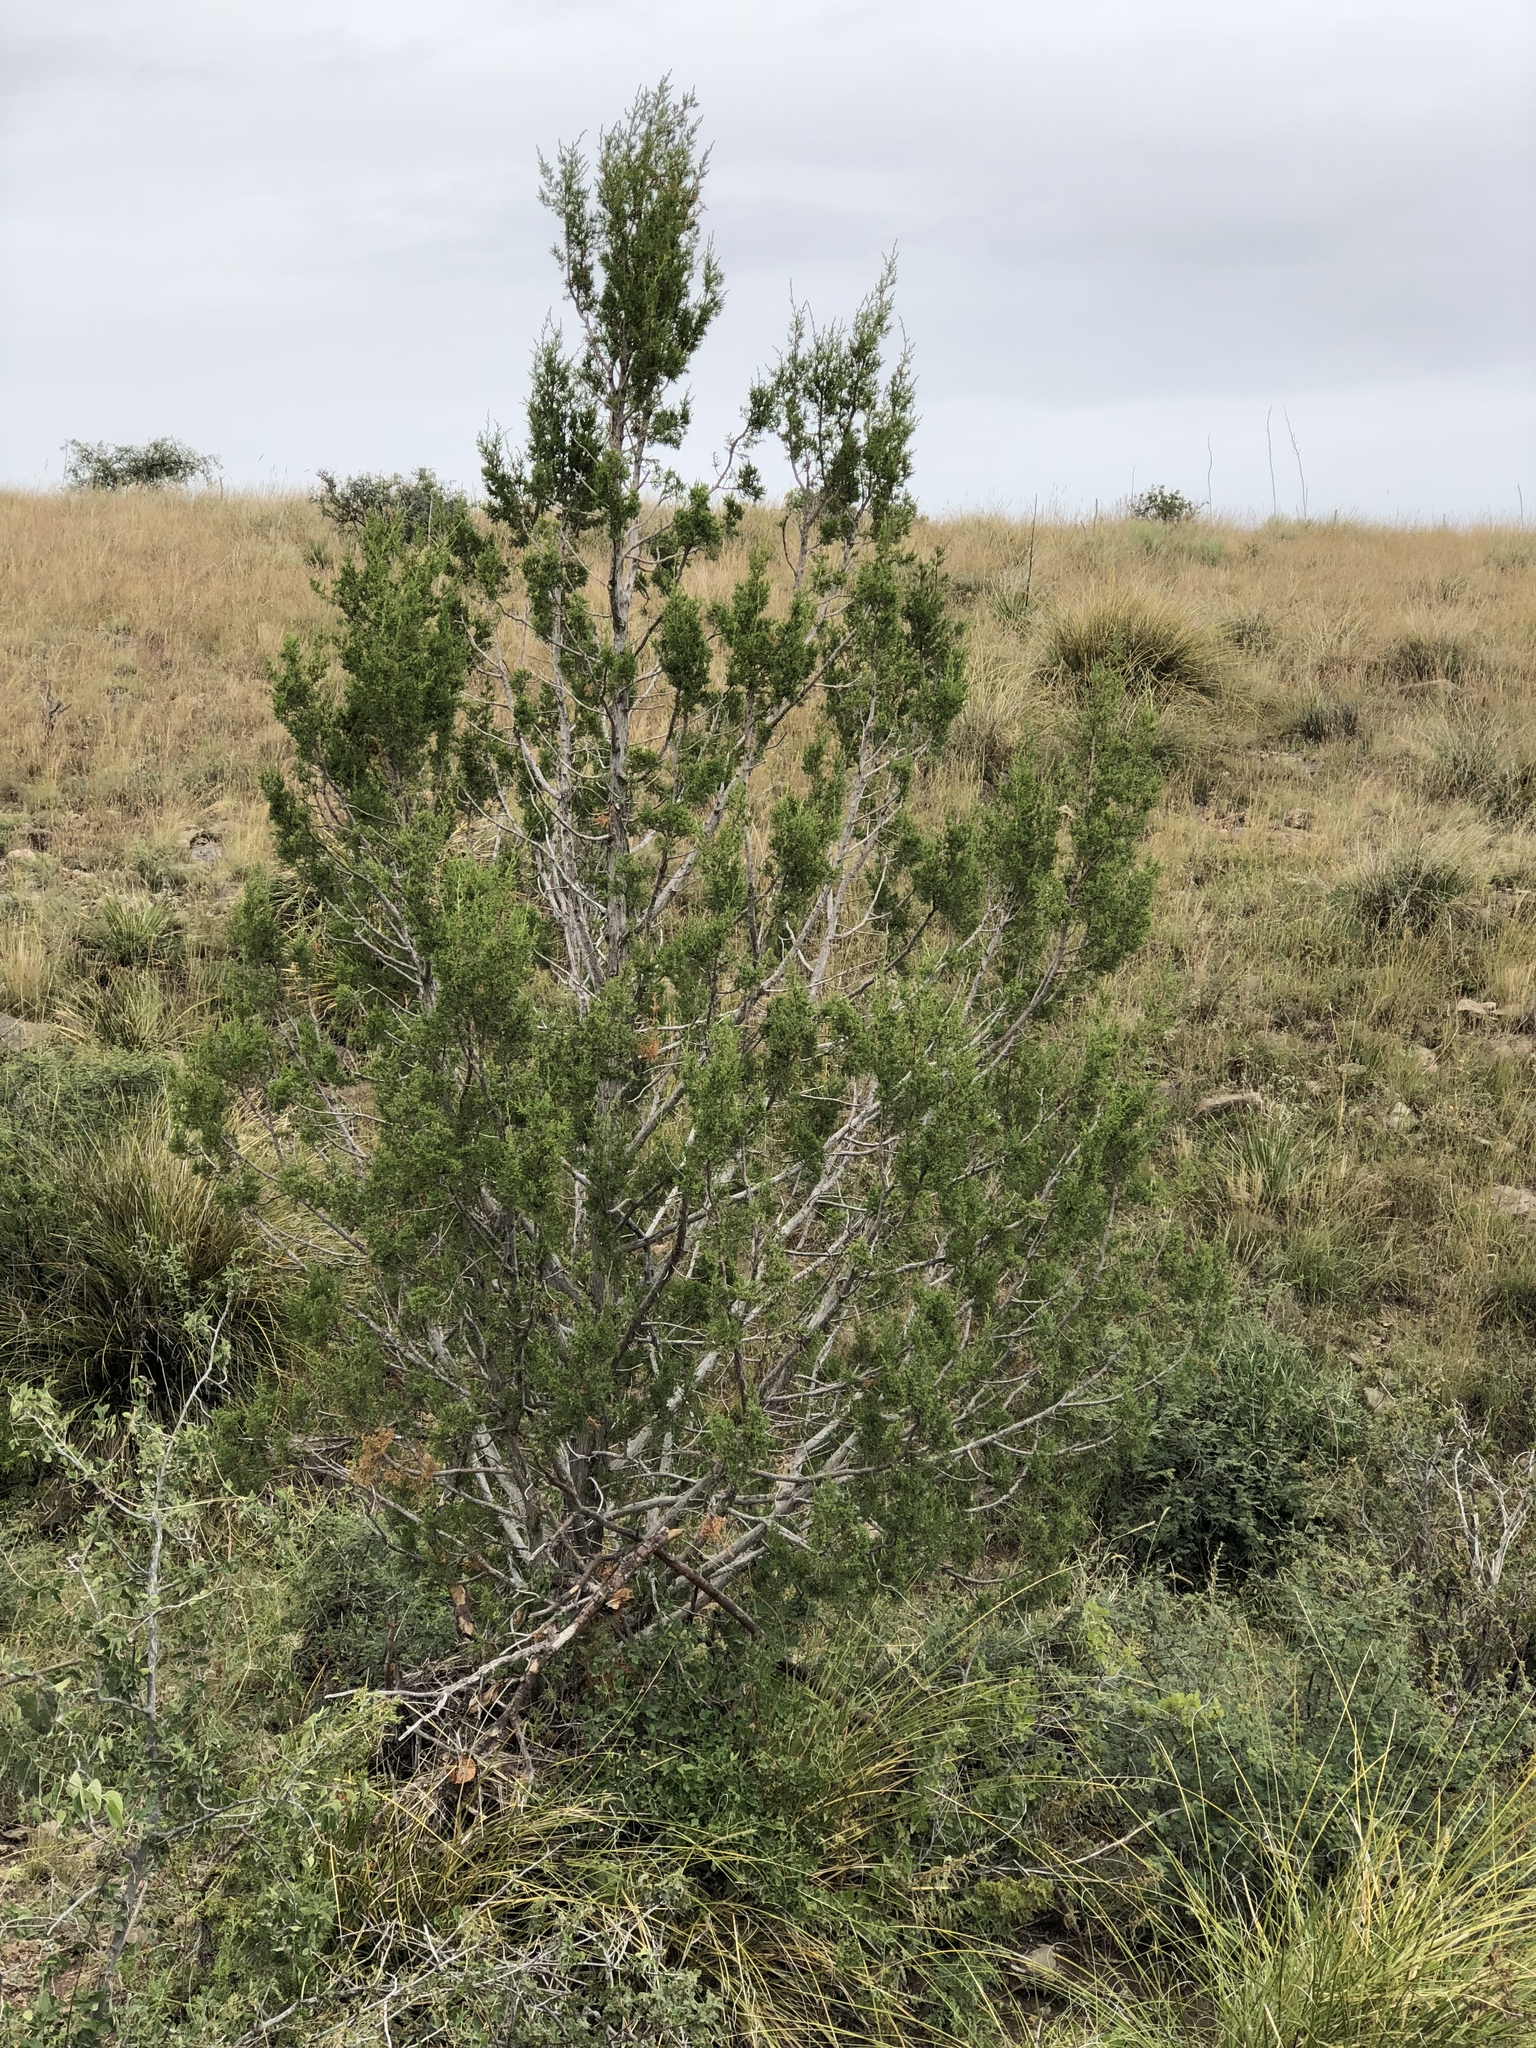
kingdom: Plantae
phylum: Tracheophyta
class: Pinopsida
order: Pinales
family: Cupressaceae
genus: Juniperus
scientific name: Juniperus monosperma
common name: One-seed juniper
